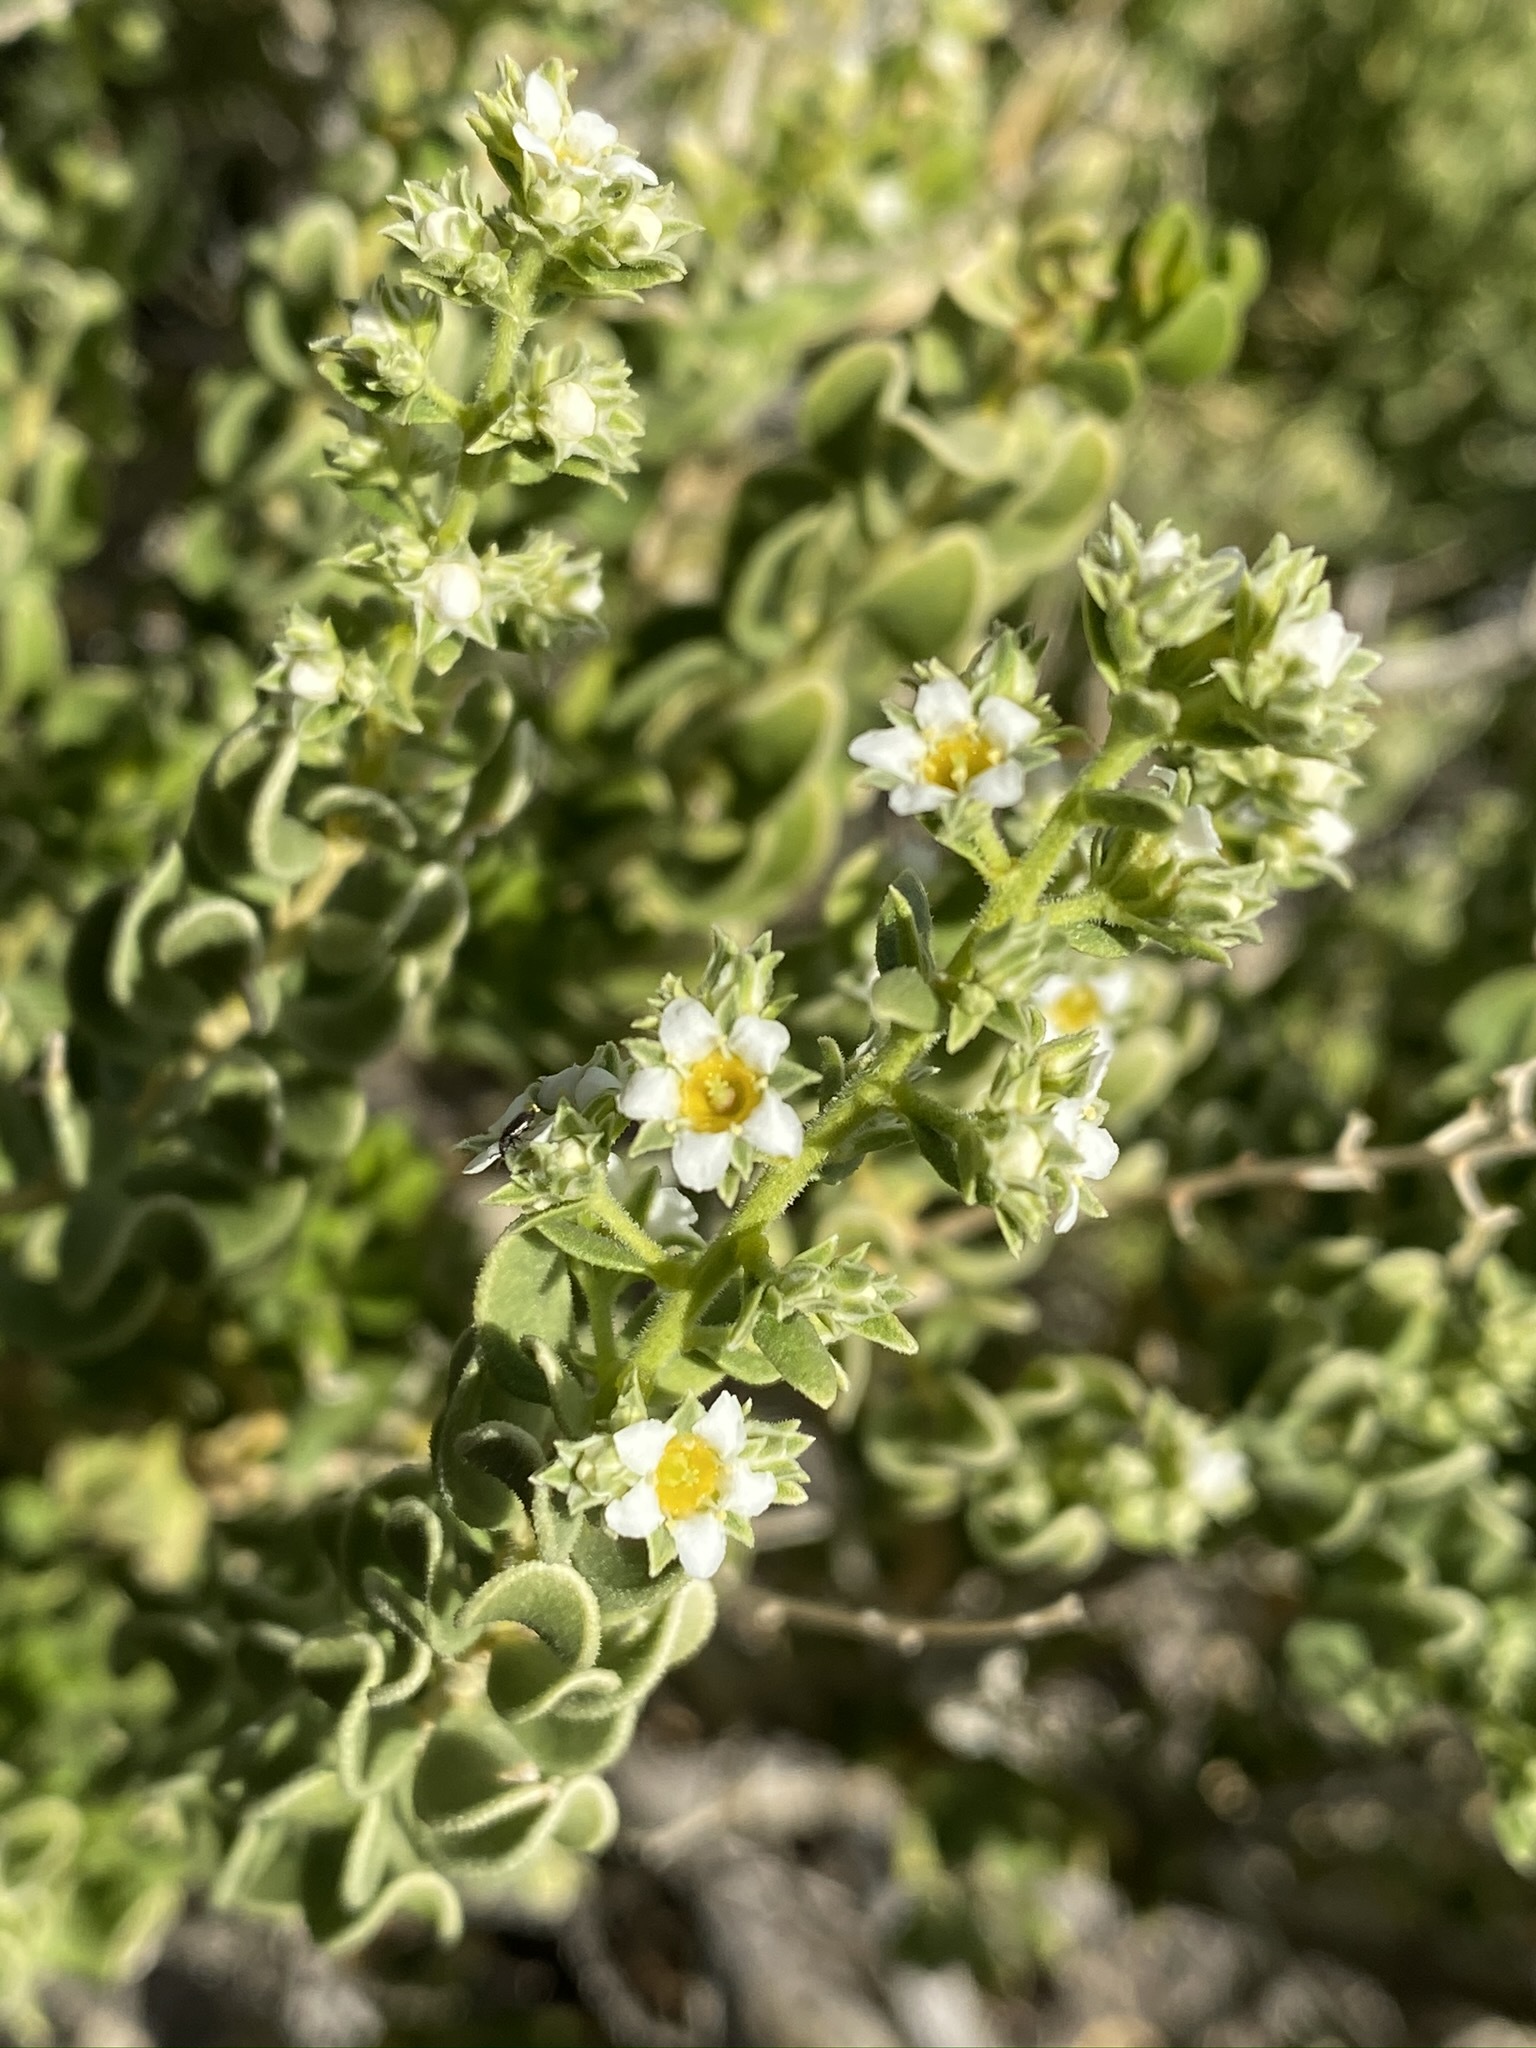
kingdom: Plantae
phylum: Tracheophyta
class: Magnoliopsida
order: Celastrales
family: Celastraceae
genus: Mortonia
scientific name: Mortonia utahensis
